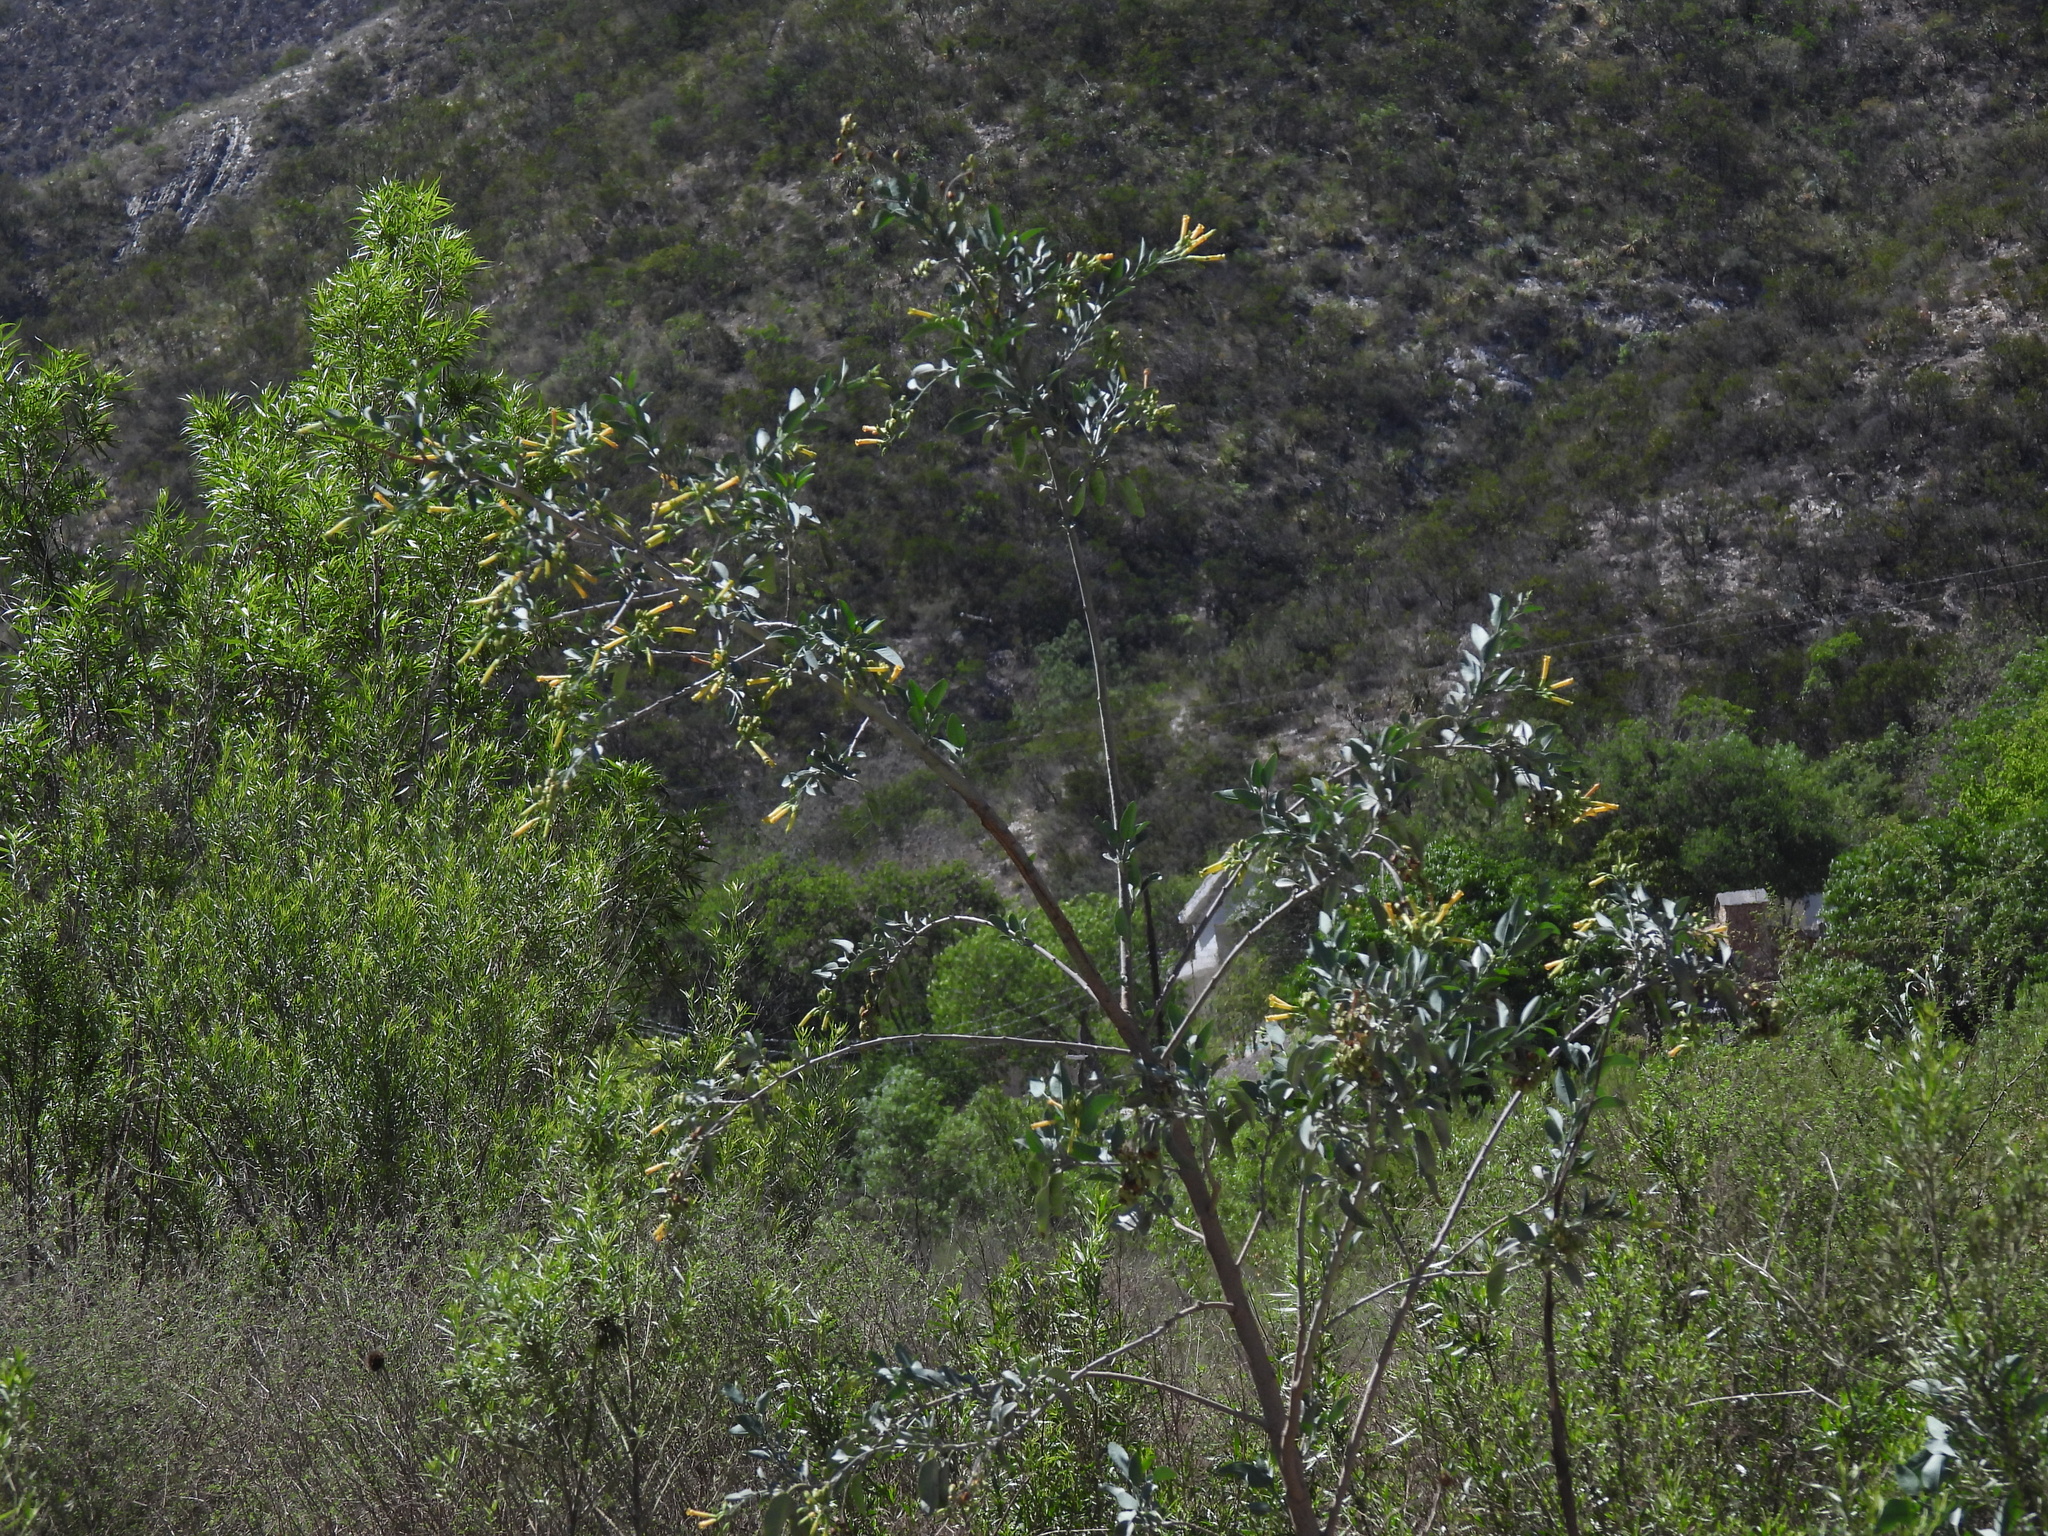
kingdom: Plantae
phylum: Tracheophyta
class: Magnoliopsida
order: Solanales
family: Solanaceae
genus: Nicotiana
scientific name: Nicotiana glauca
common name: Tree tobacco
